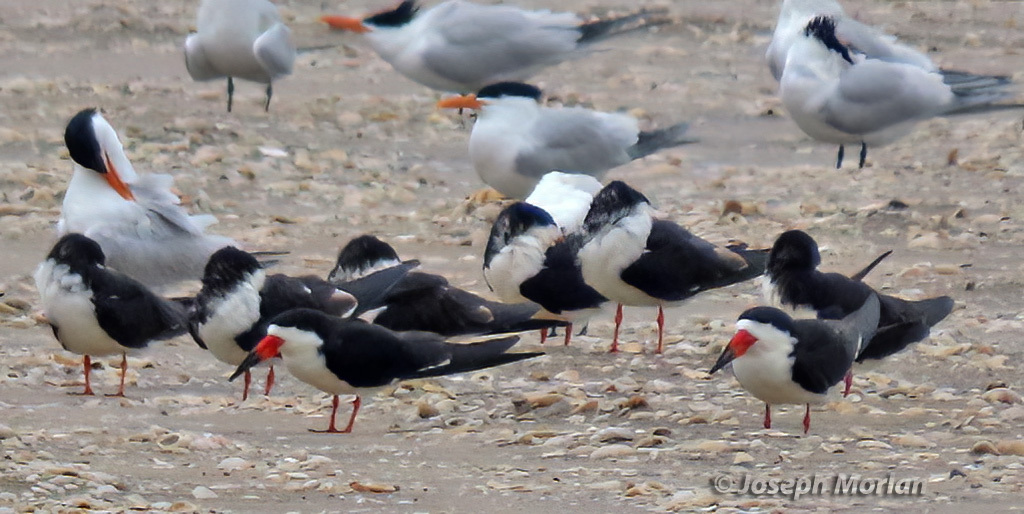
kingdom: Animalia
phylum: Chordata
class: Aves
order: Charadriiformes
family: Laridae
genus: Rynchops
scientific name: Rynchops niger
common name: Black skimmer
